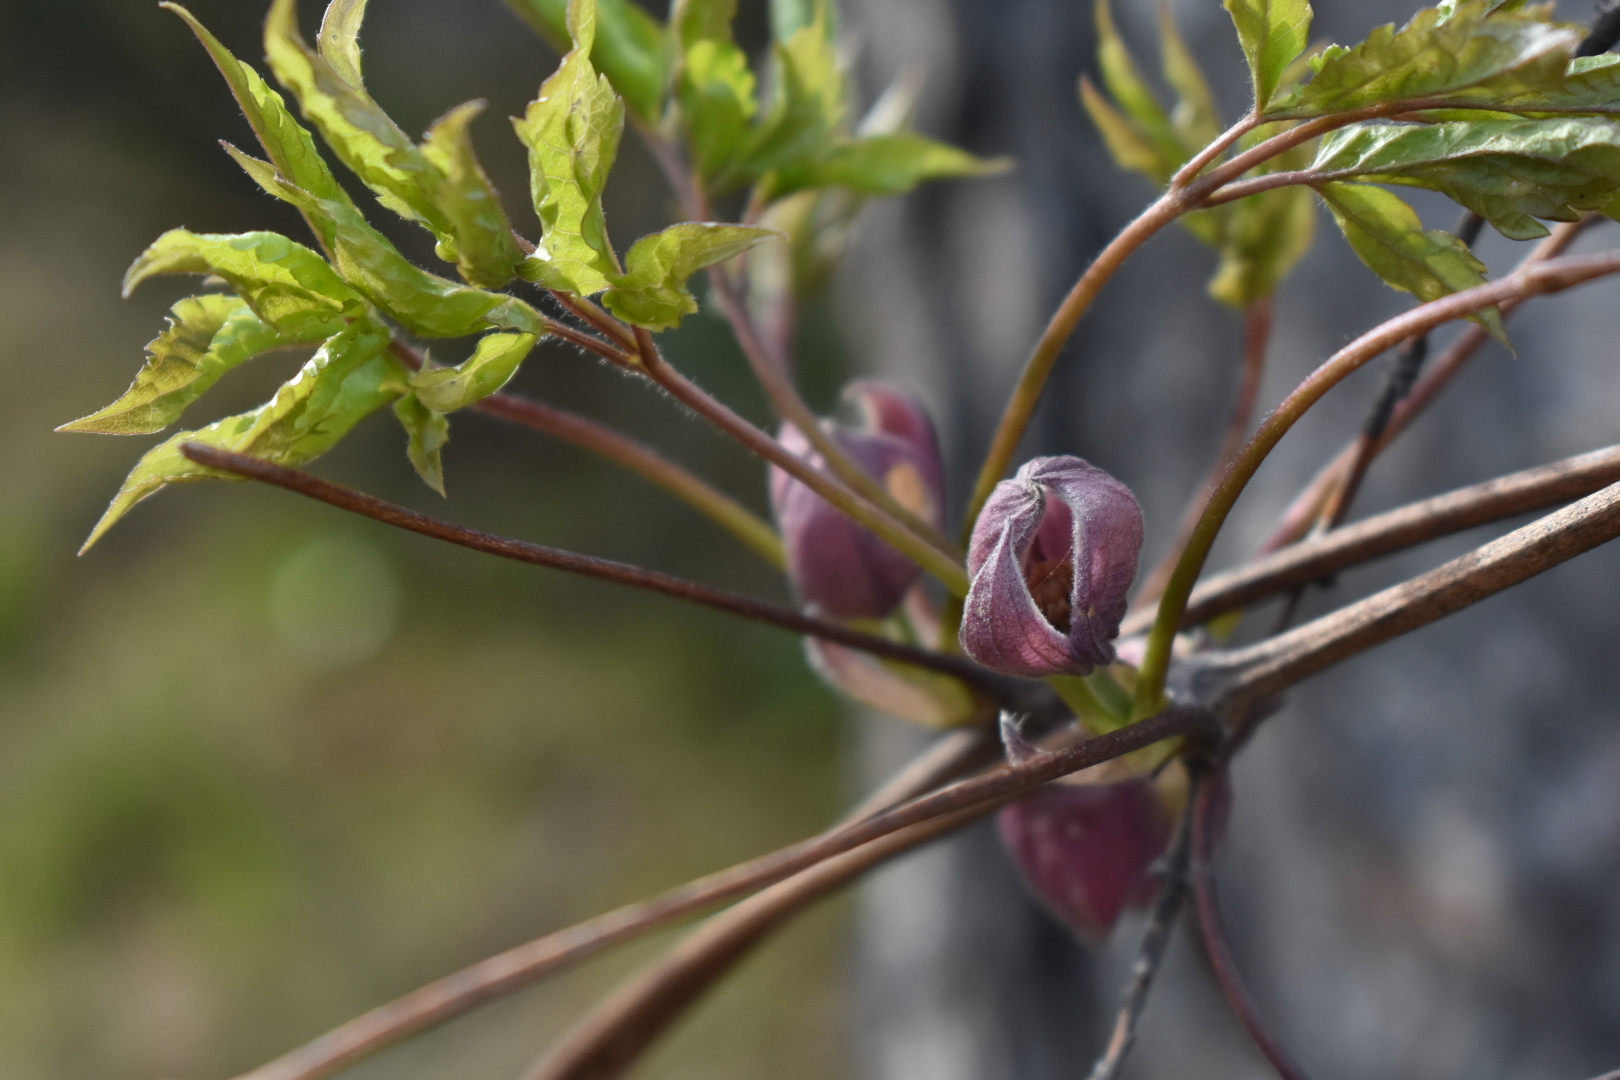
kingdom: Plantae
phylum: Tracheophyta
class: Magnoliopsida
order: Ranunculales
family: Ranunculaceae
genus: Clematis
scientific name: Clematis ochotensis
